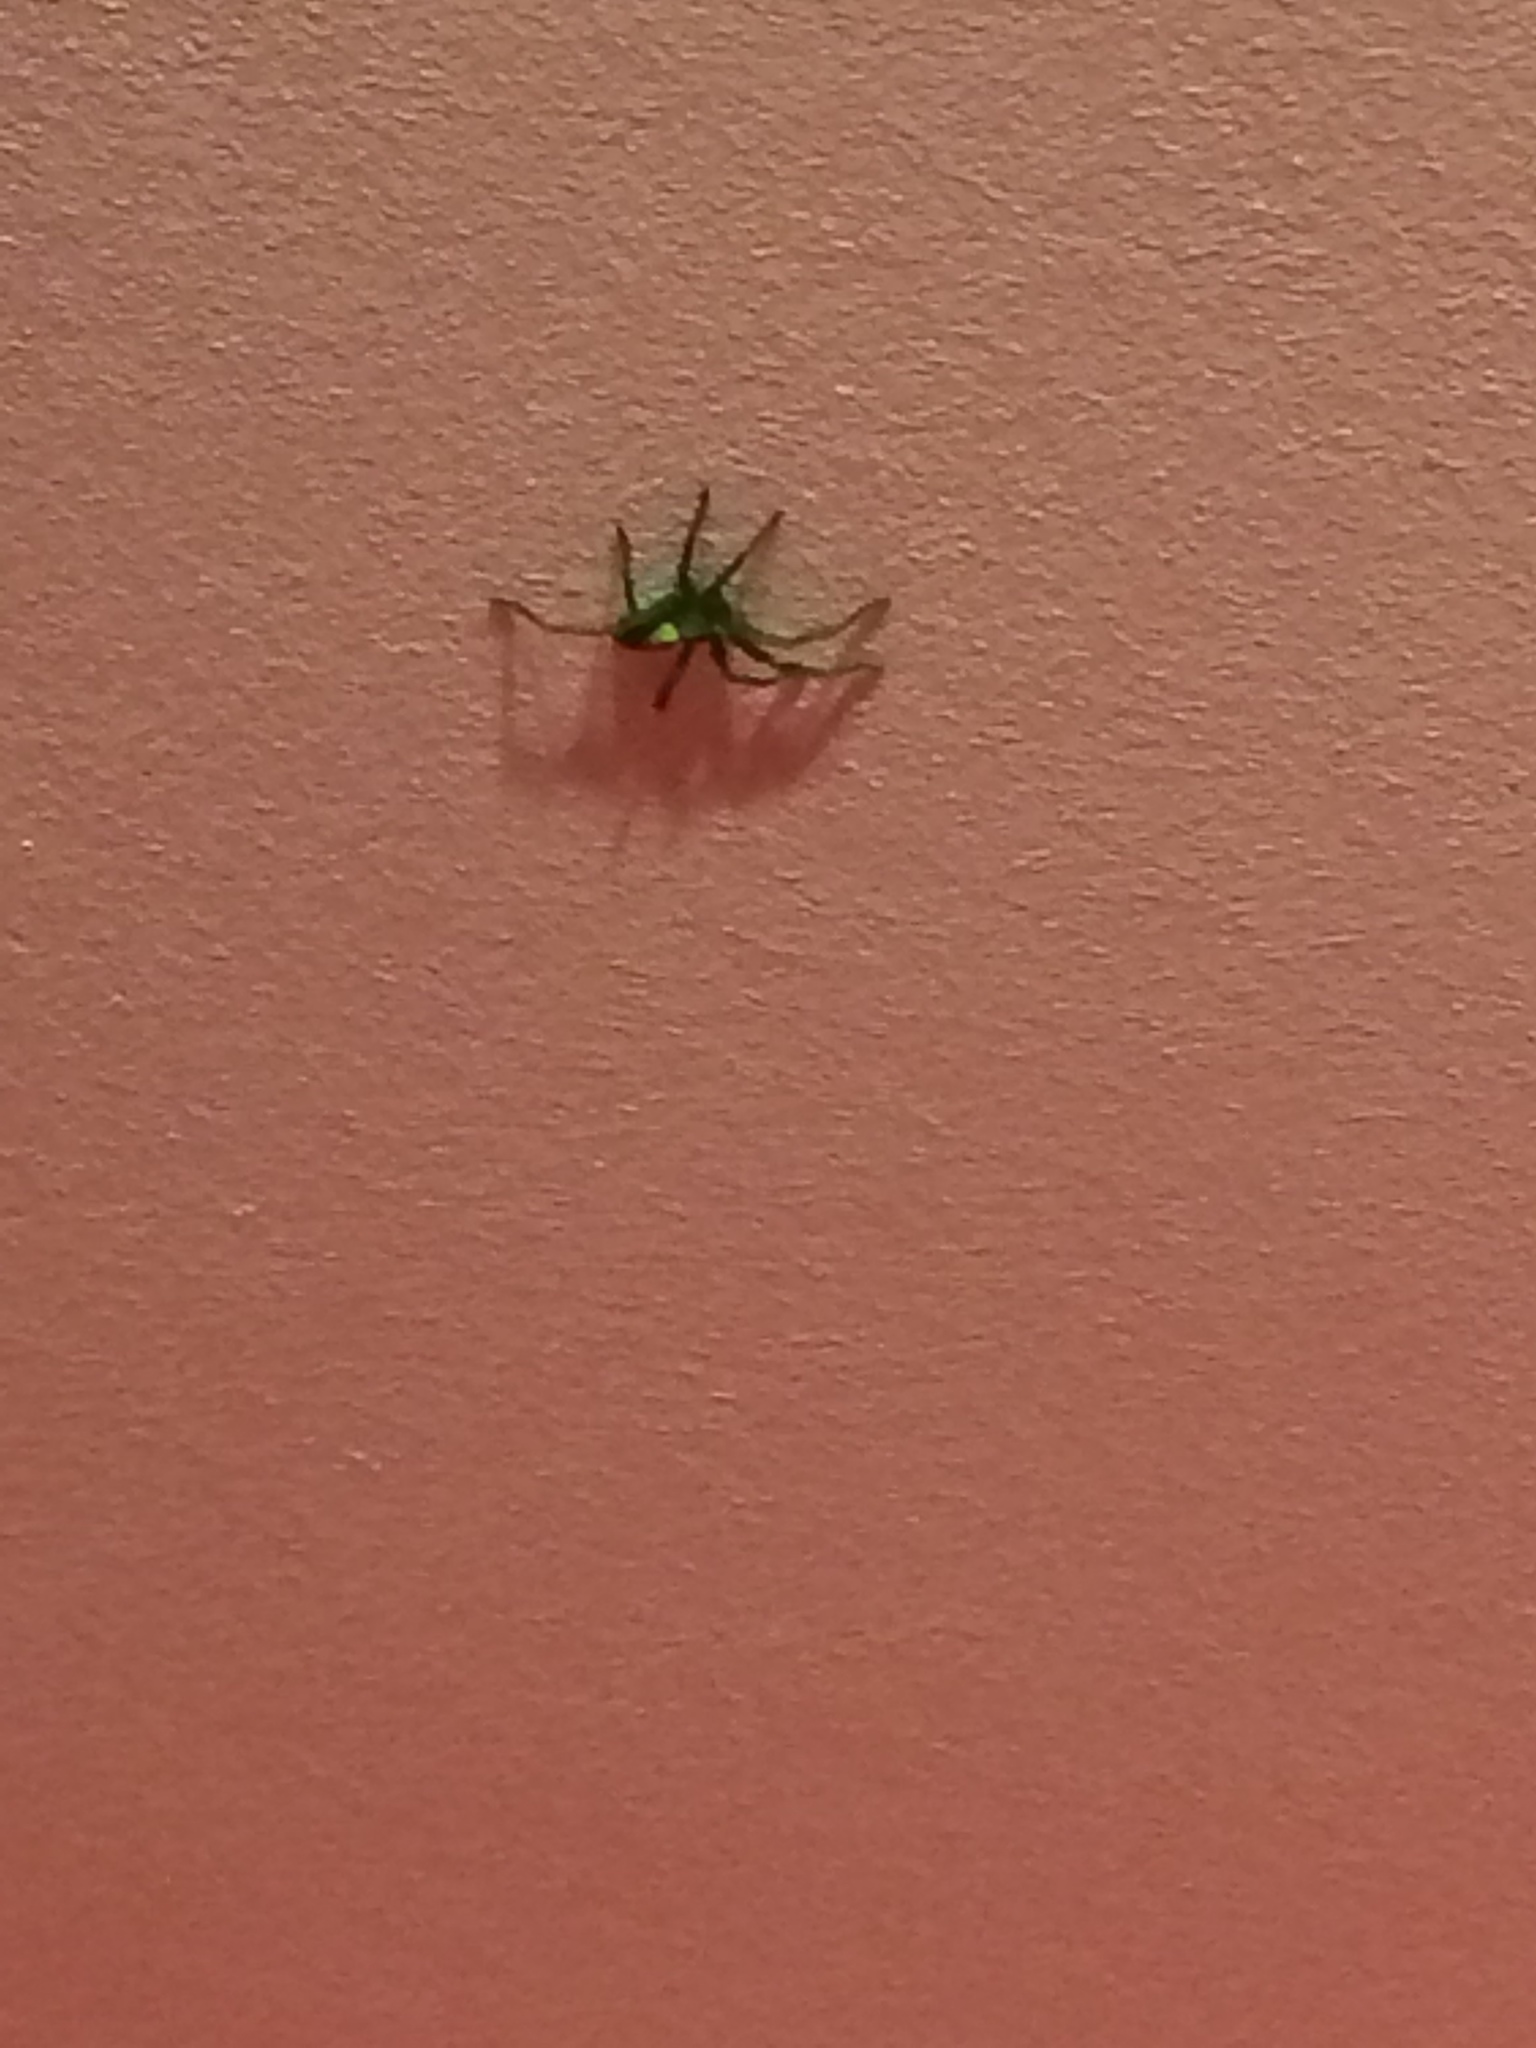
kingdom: Animalia
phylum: Arthropoda
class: Arachnida
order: Araneae
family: Sparassidae
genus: Micrommata
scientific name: Micrommata virescens
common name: Green spider
